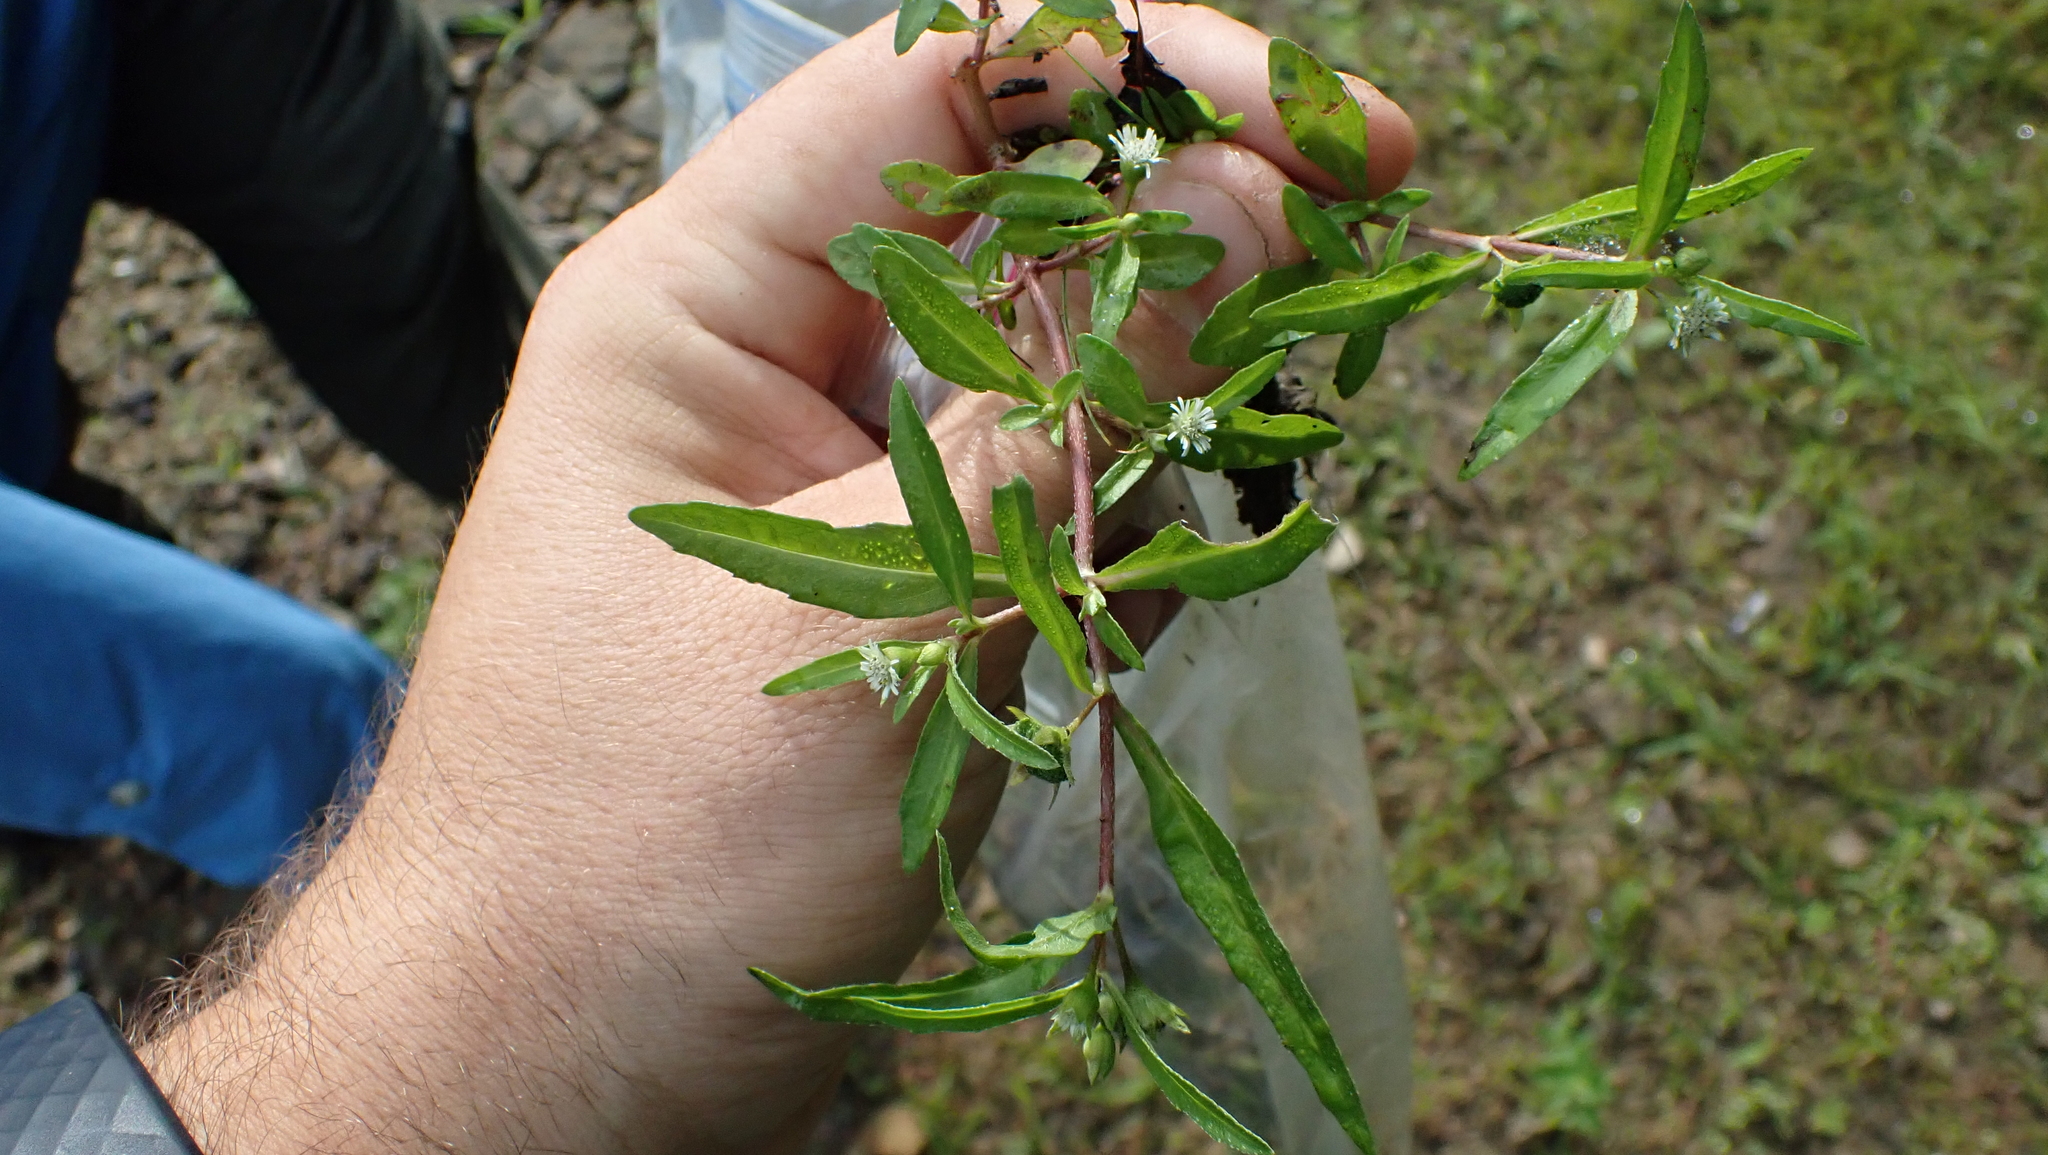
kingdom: Plantae
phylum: Tracheophyta
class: Magnoliopsida
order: Asterales
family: Asteraceae
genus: Eclipta
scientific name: Eclipta prostrata
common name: False daisy
